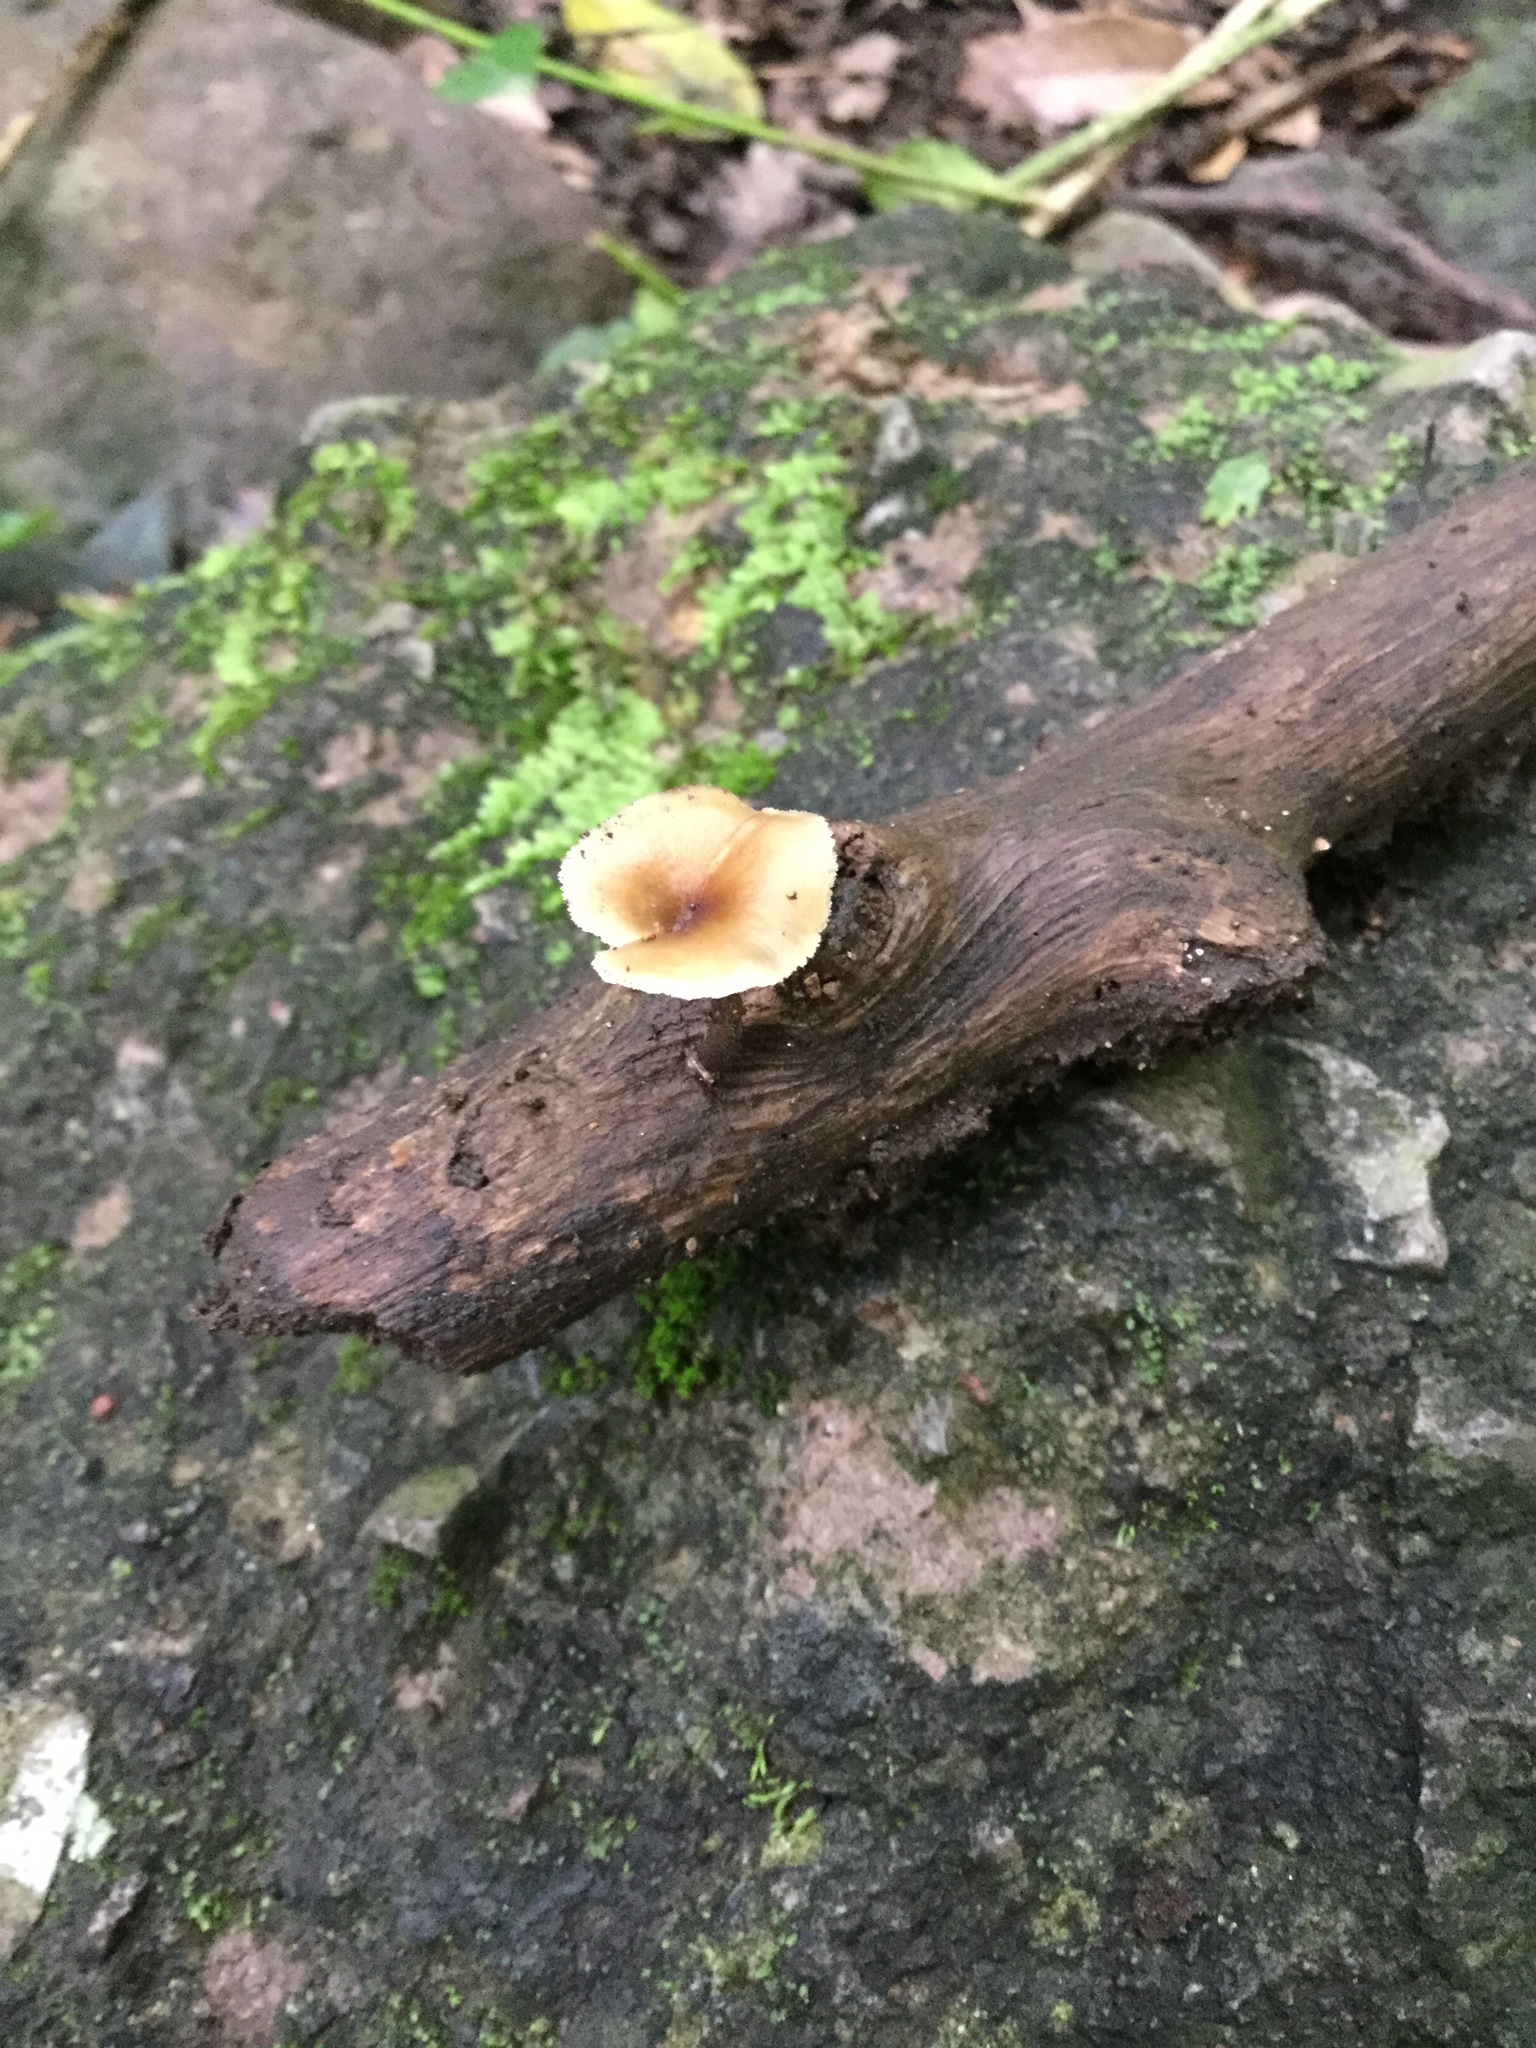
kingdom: Fungi
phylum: Basidiomycota
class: Agaricomycetes
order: Polyporales
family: Polyporaceae
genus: Picipes
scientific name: Picipes badius
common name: Bay polypore
